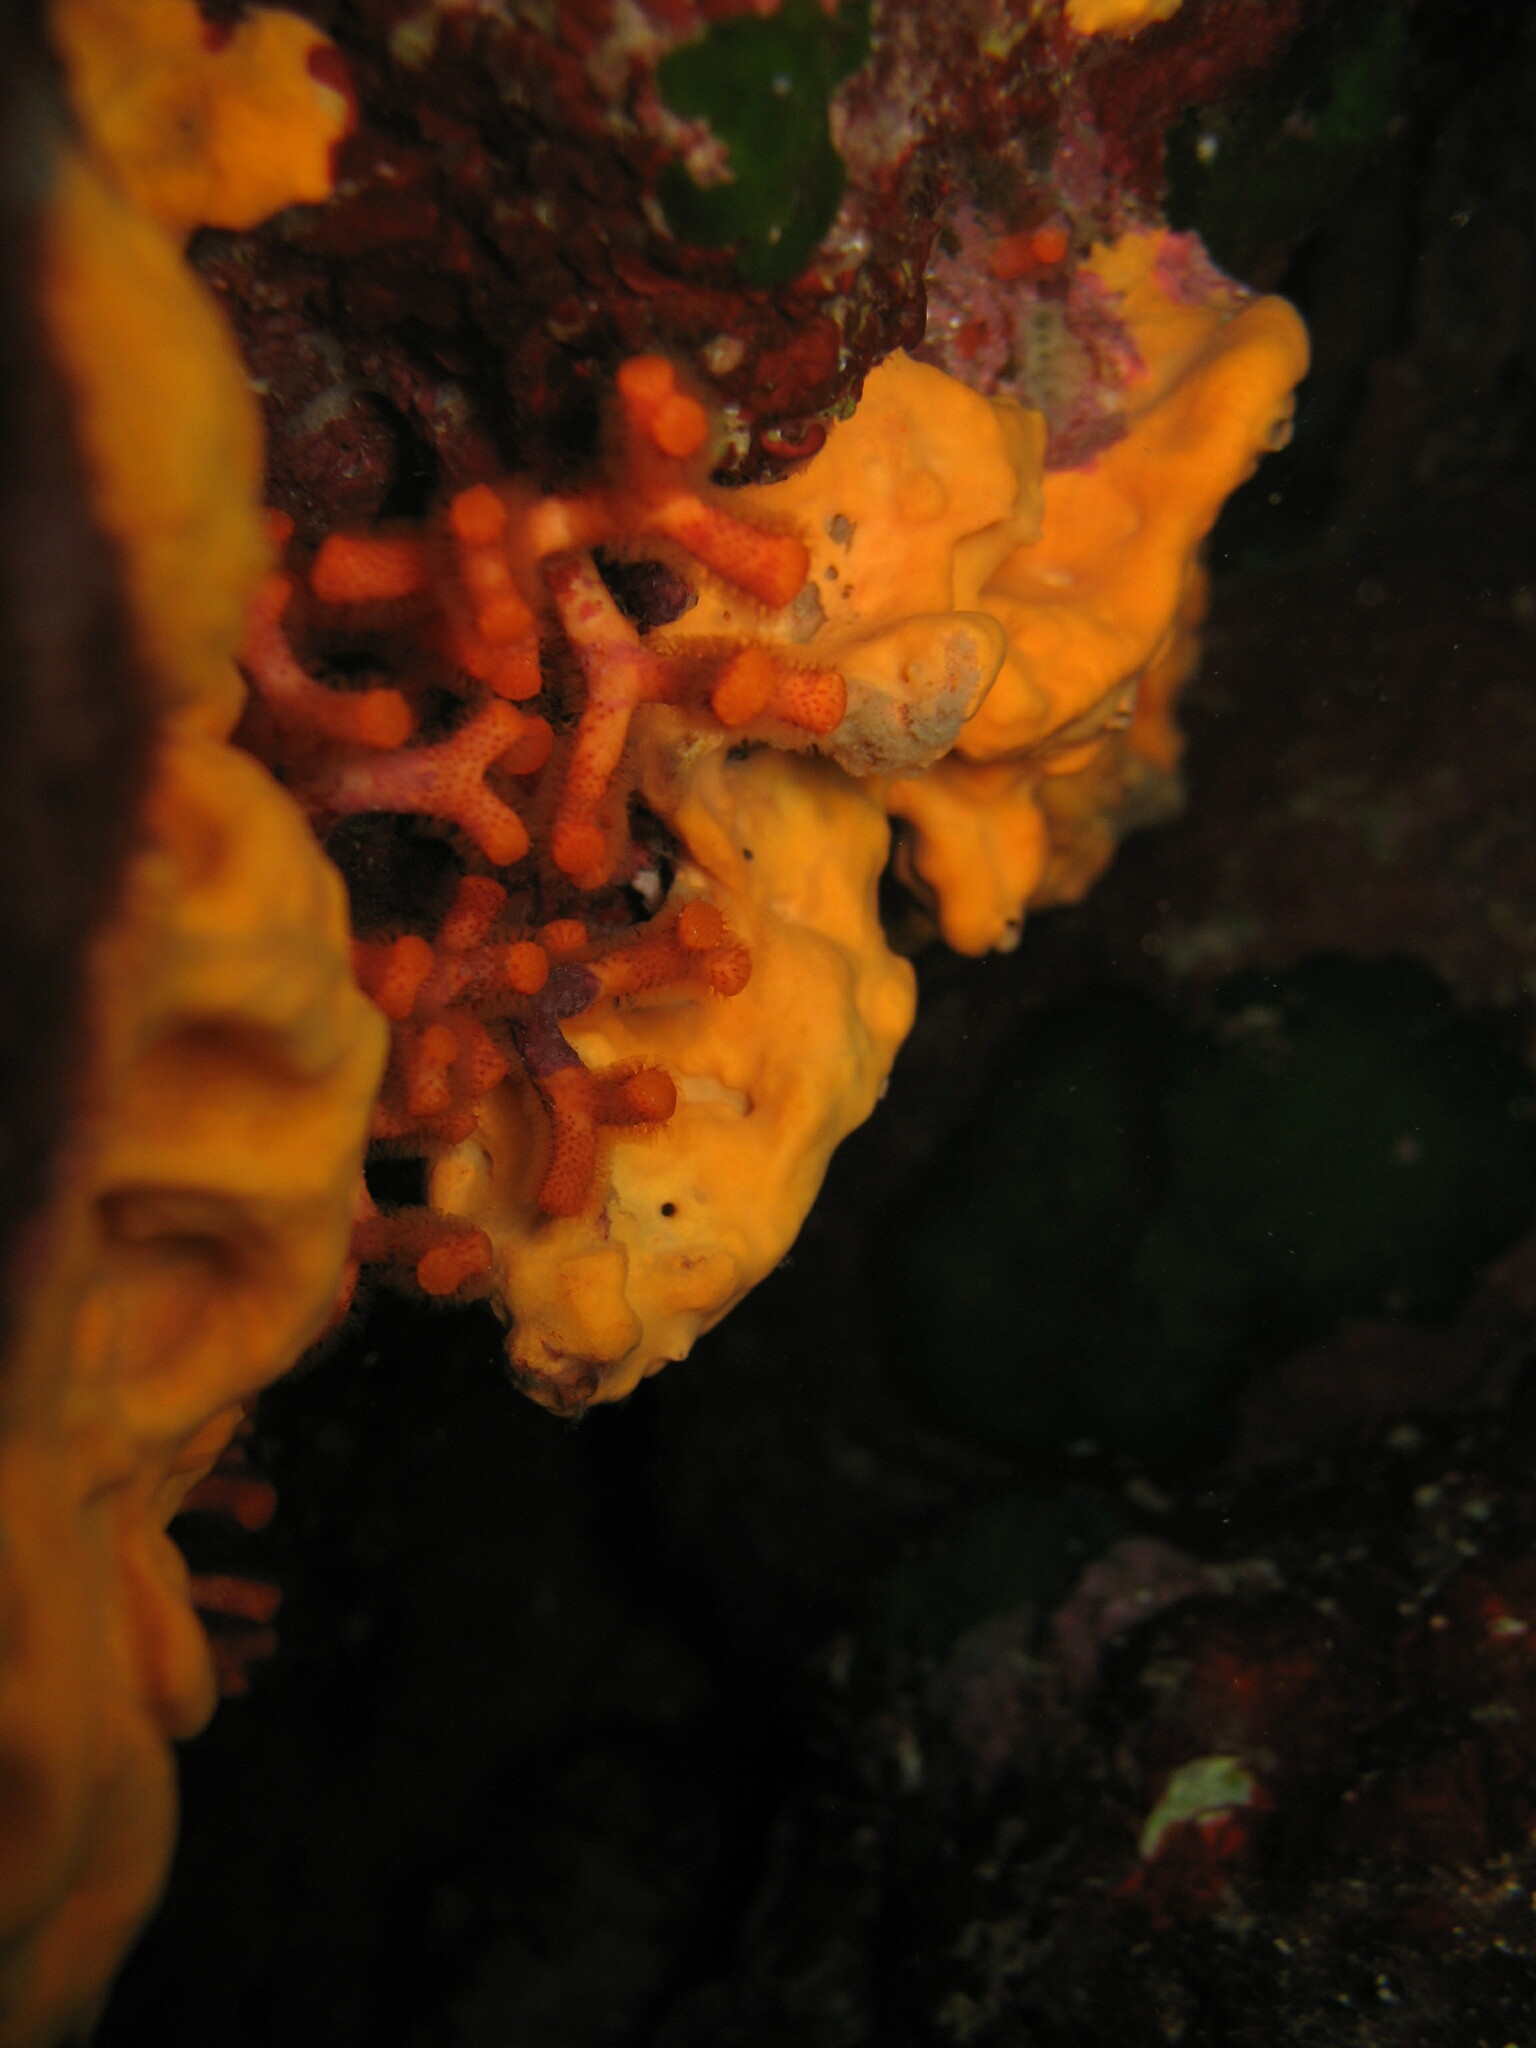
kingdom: Animalia
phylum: Bryozoa
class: Gymnolaemata
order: Cheilostomatida
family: Myriaporidae
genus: Myriapora
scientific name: Myriapora truncata
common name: False coral
